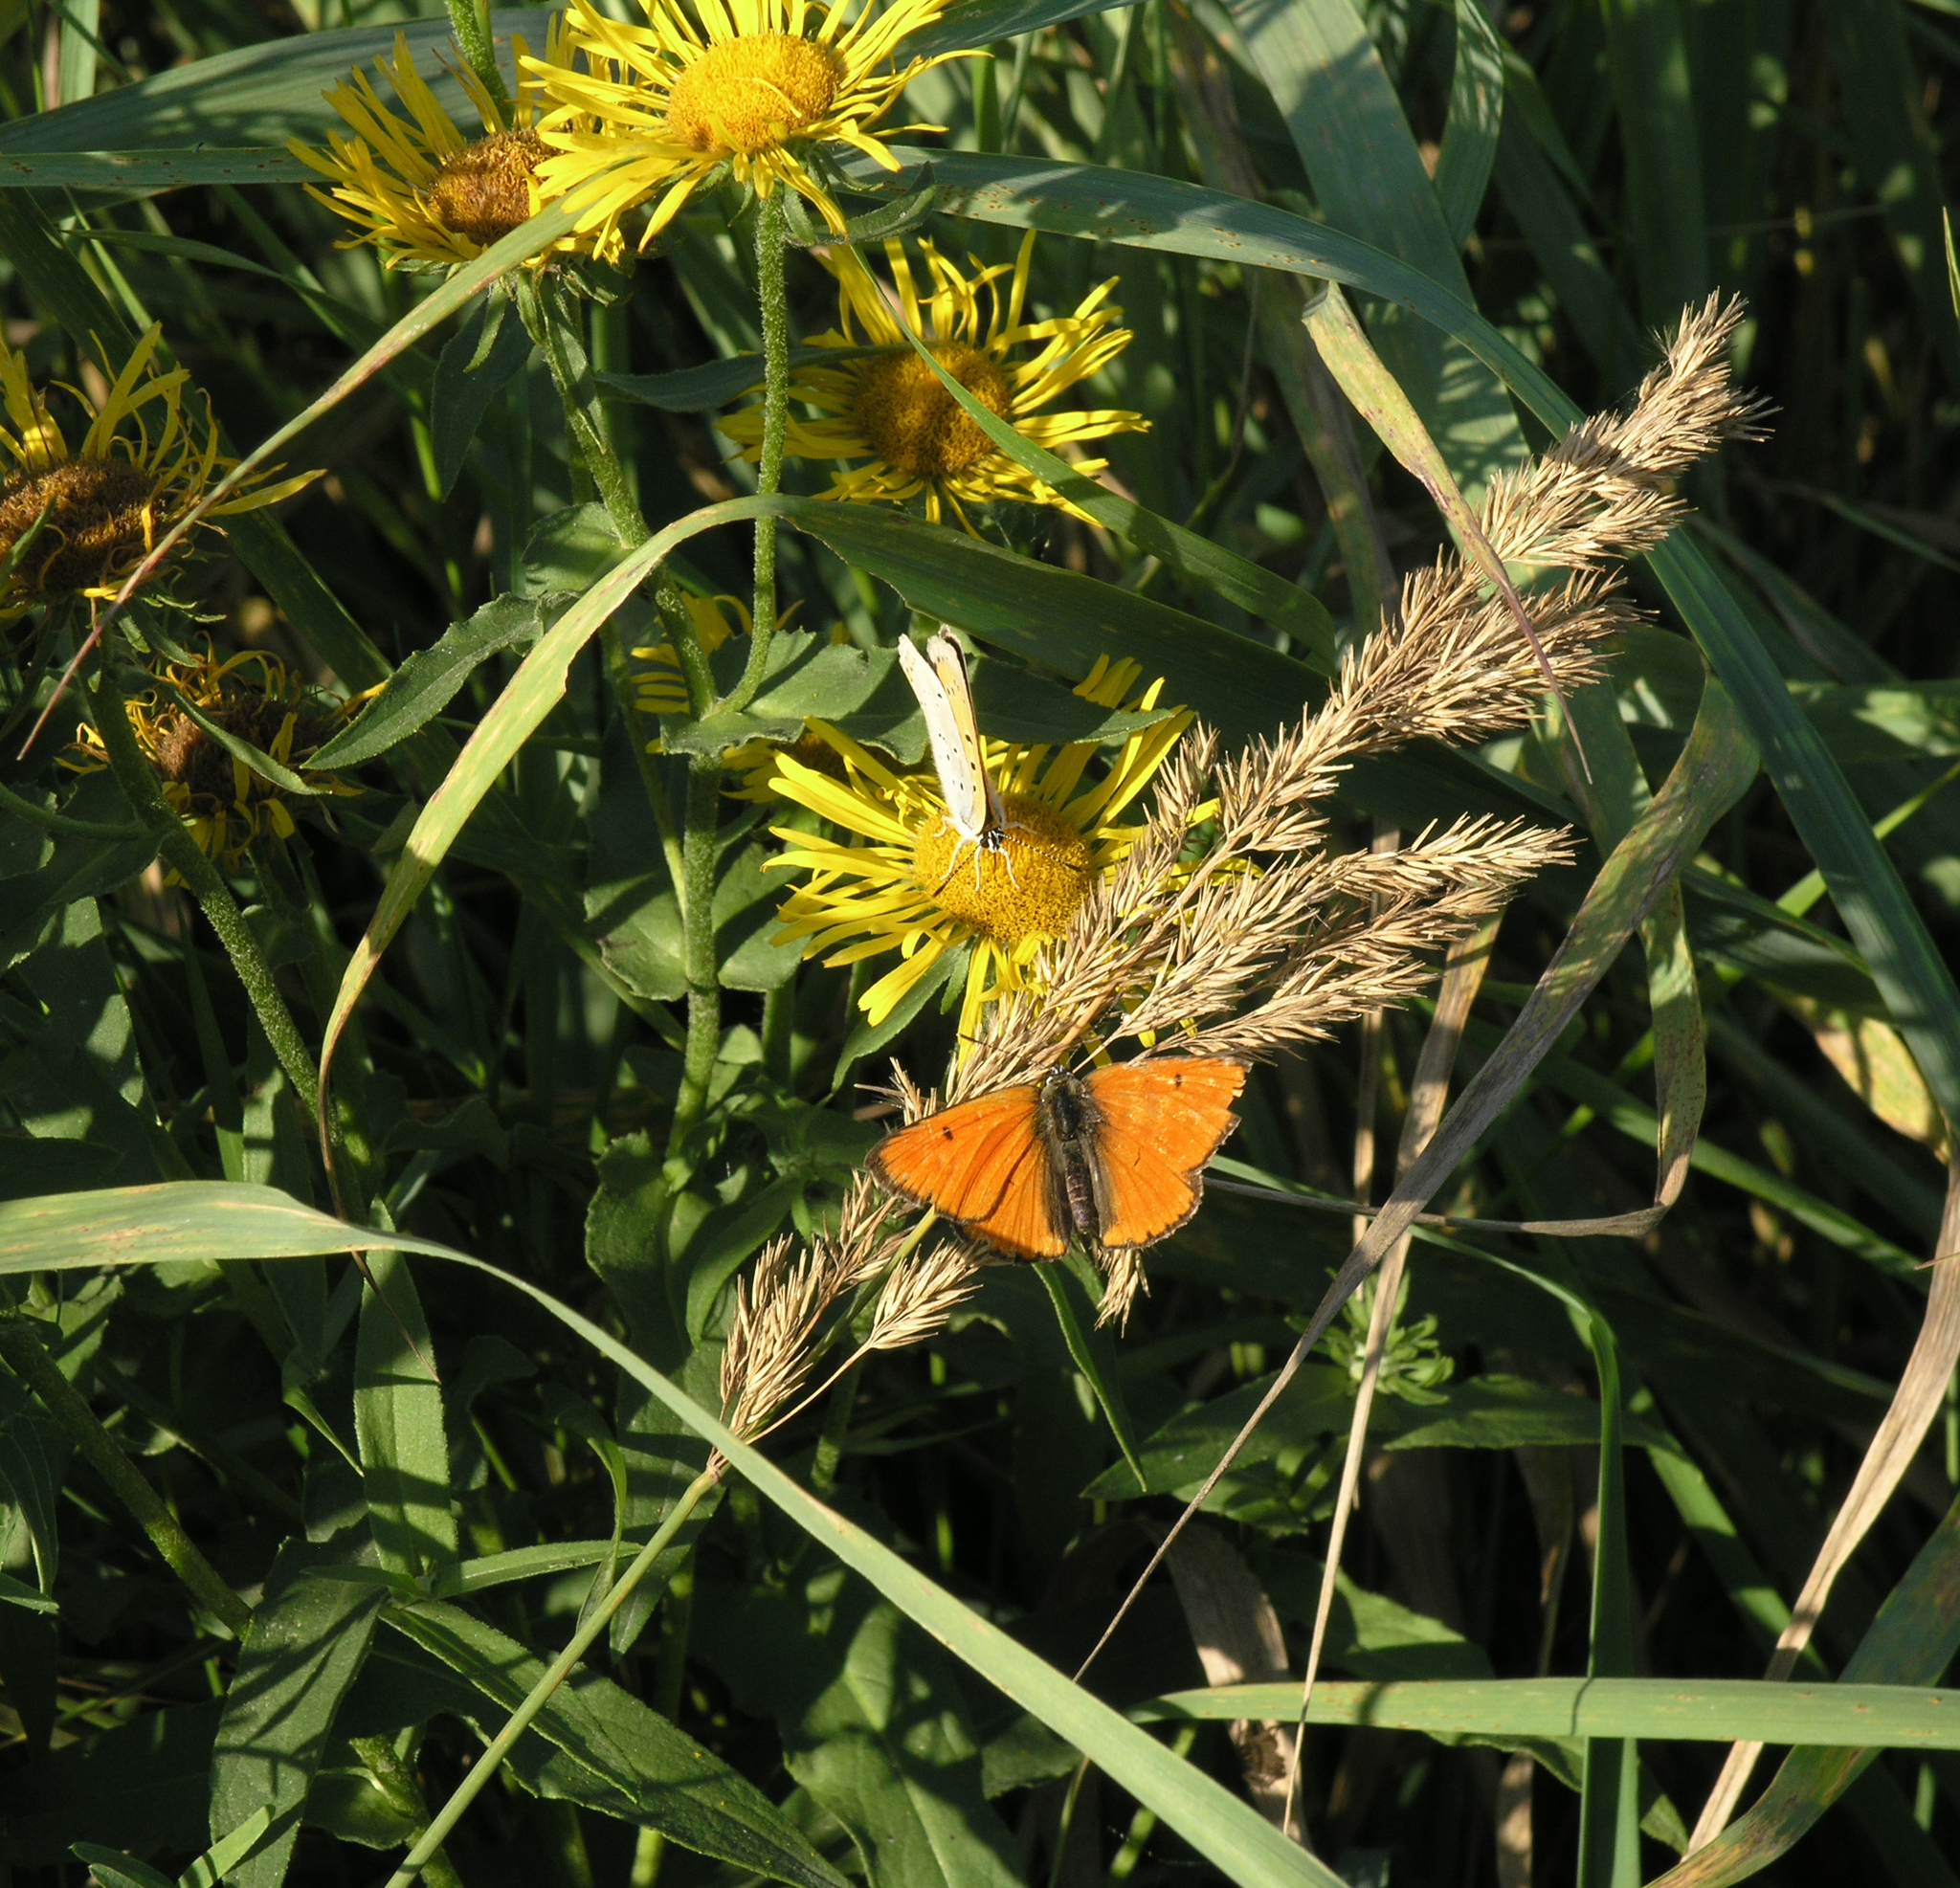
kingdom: Plantae
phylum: Tracheophyta
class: Liliopsida
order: Poales
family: Poaceae
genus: Dactylis
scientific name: Dactylis glomerata
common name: Orchardgrass
